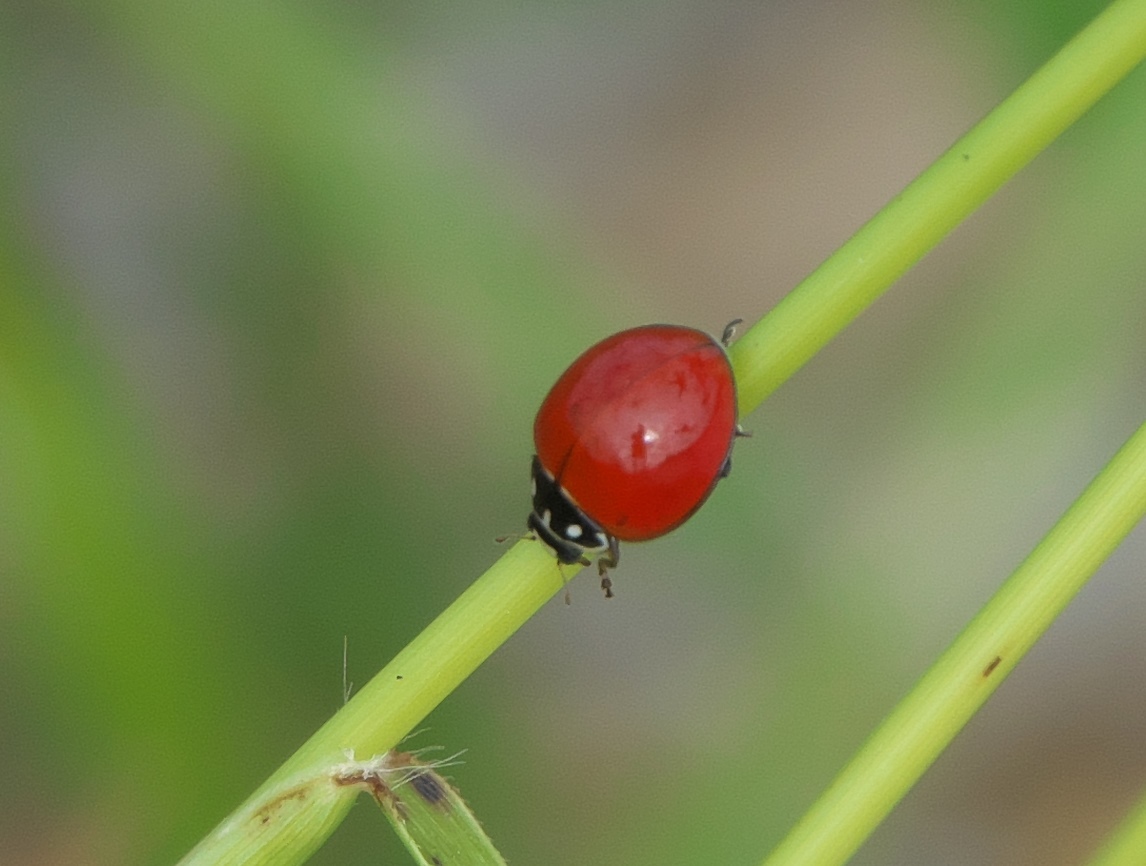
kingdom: Animalia
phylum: Arthropoda
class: Insecta
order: Coleoptera
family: Coccinellidae
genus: Cycloneda
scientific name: Cycloneda sanguinea
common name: Ladybird beetle
